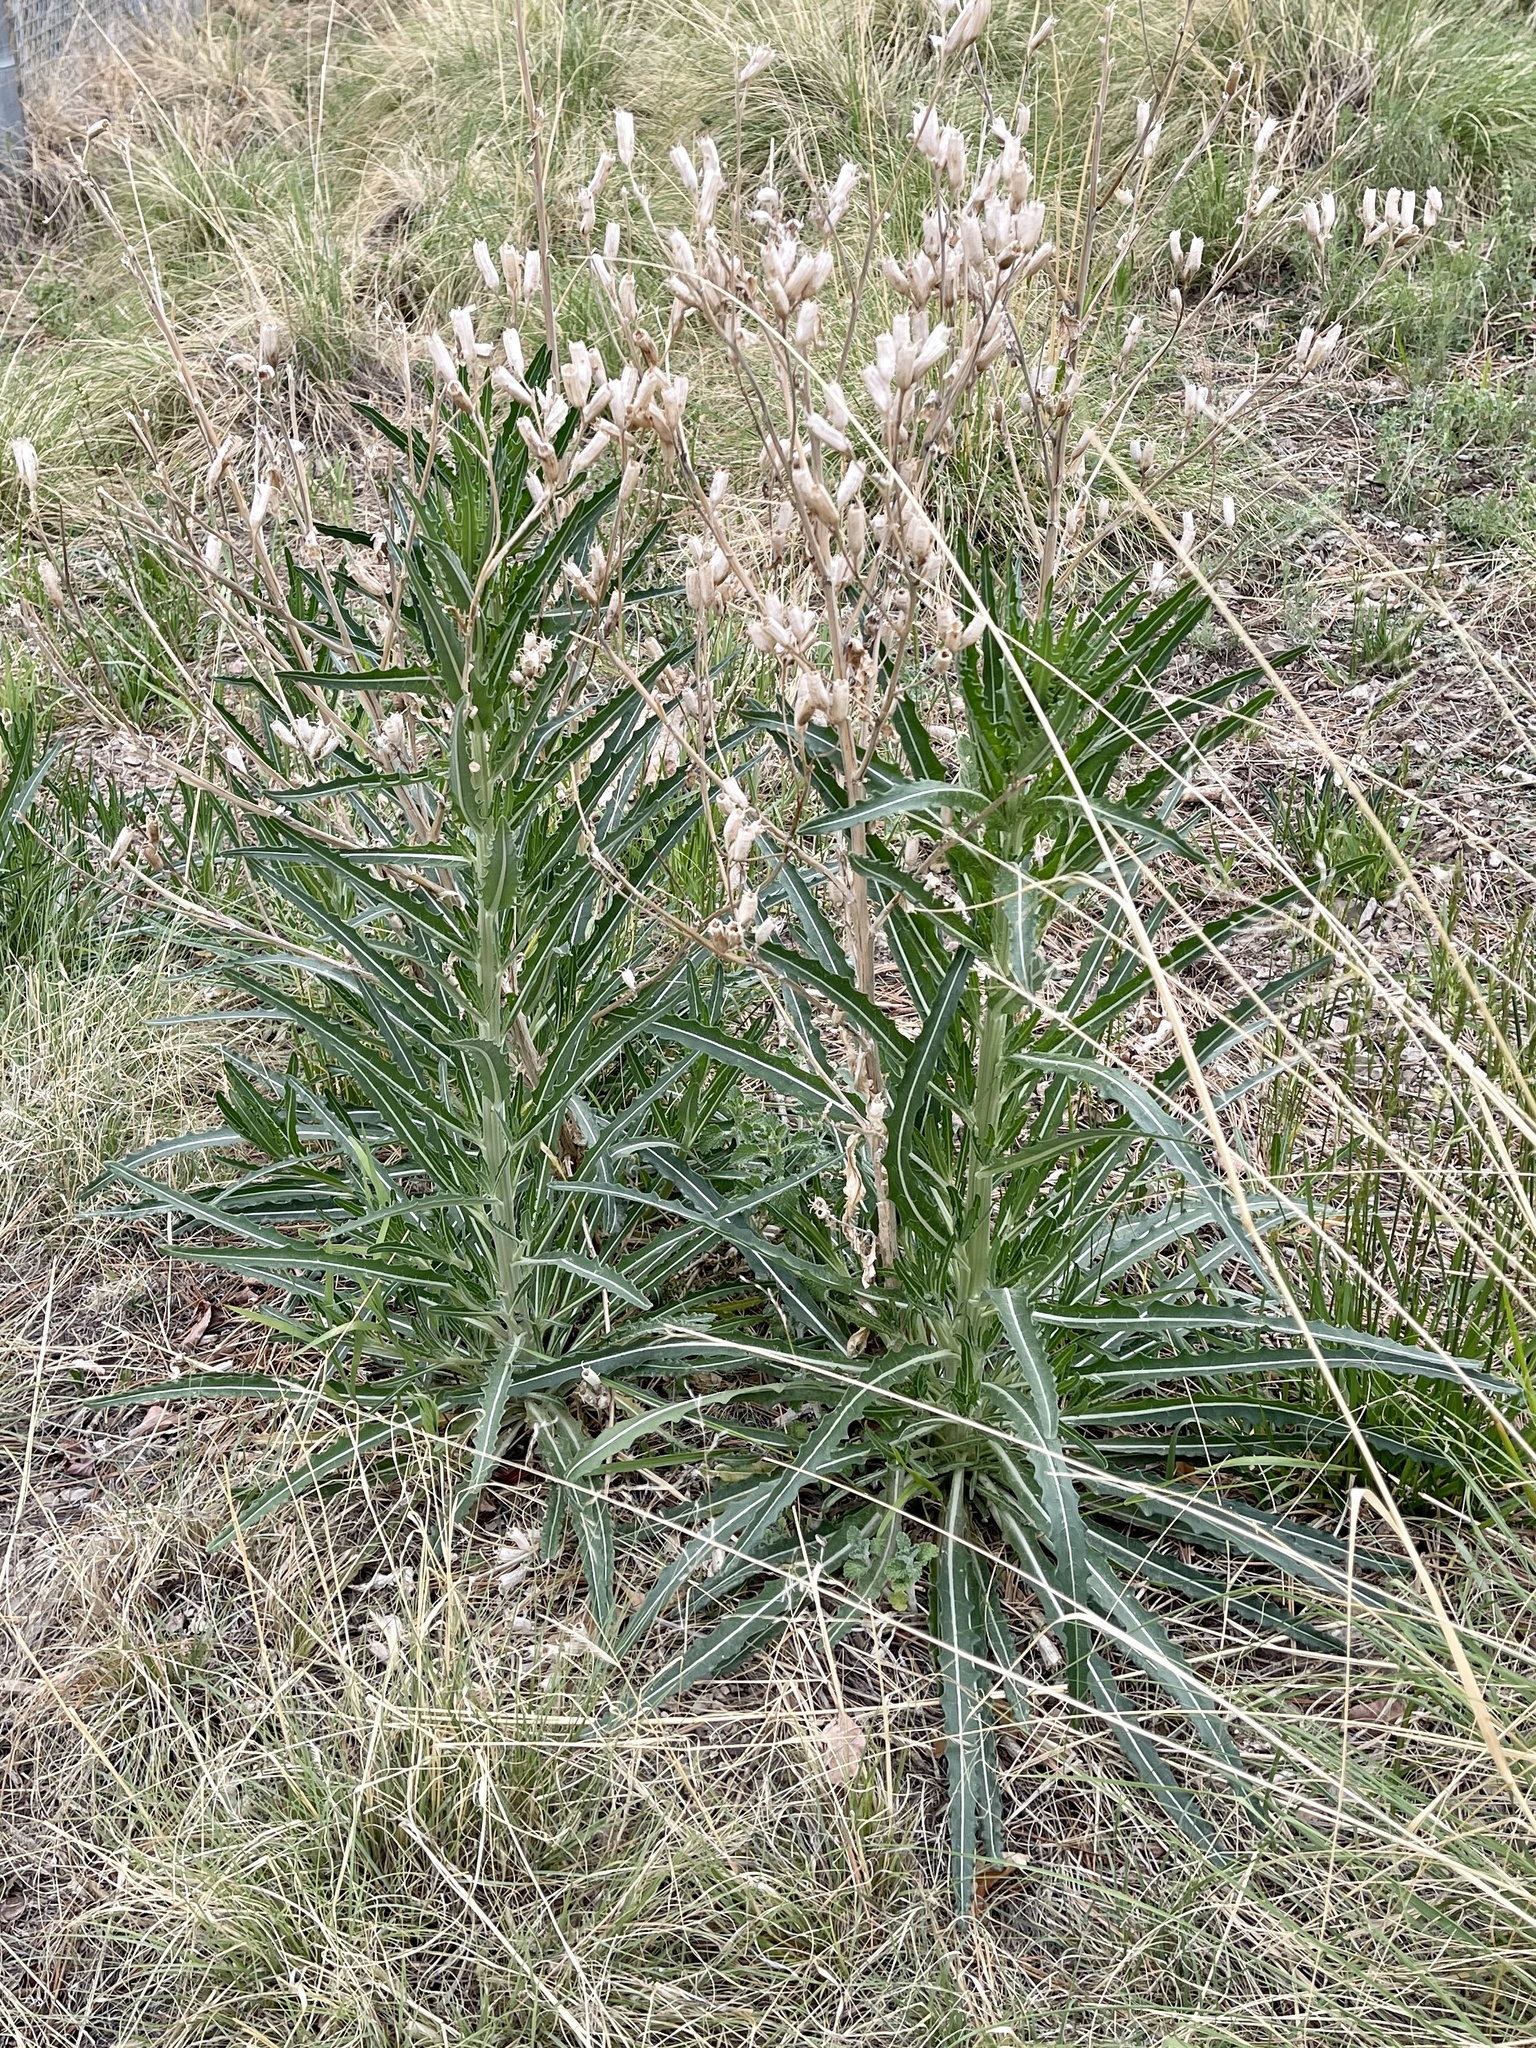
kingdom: Plantae
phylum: Tracheophyta
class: Magnoliopsida
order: Cornales
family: Loasaceae
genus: Mentzelia
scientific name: Mentzelia rusbyi
